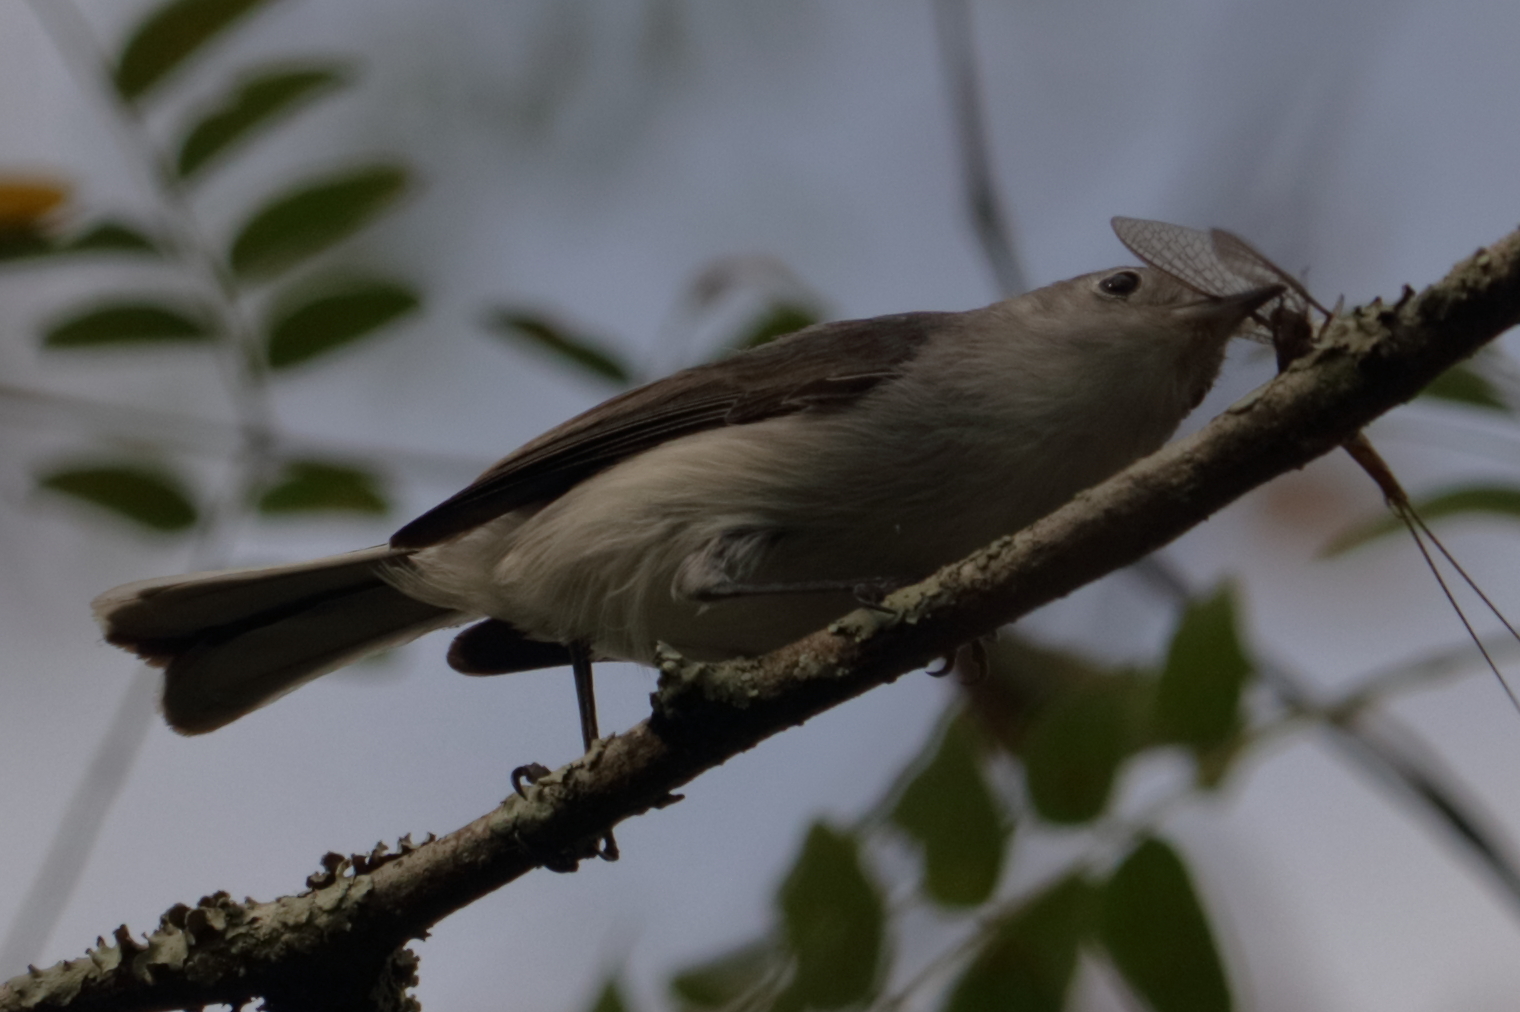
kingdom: Animalia
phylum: Chordata
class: Aves
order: Passeriformes
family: Polioptilidae
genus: Polioptila
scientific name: Polioptila caerulea
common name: Blue-gray gnatcatcher
